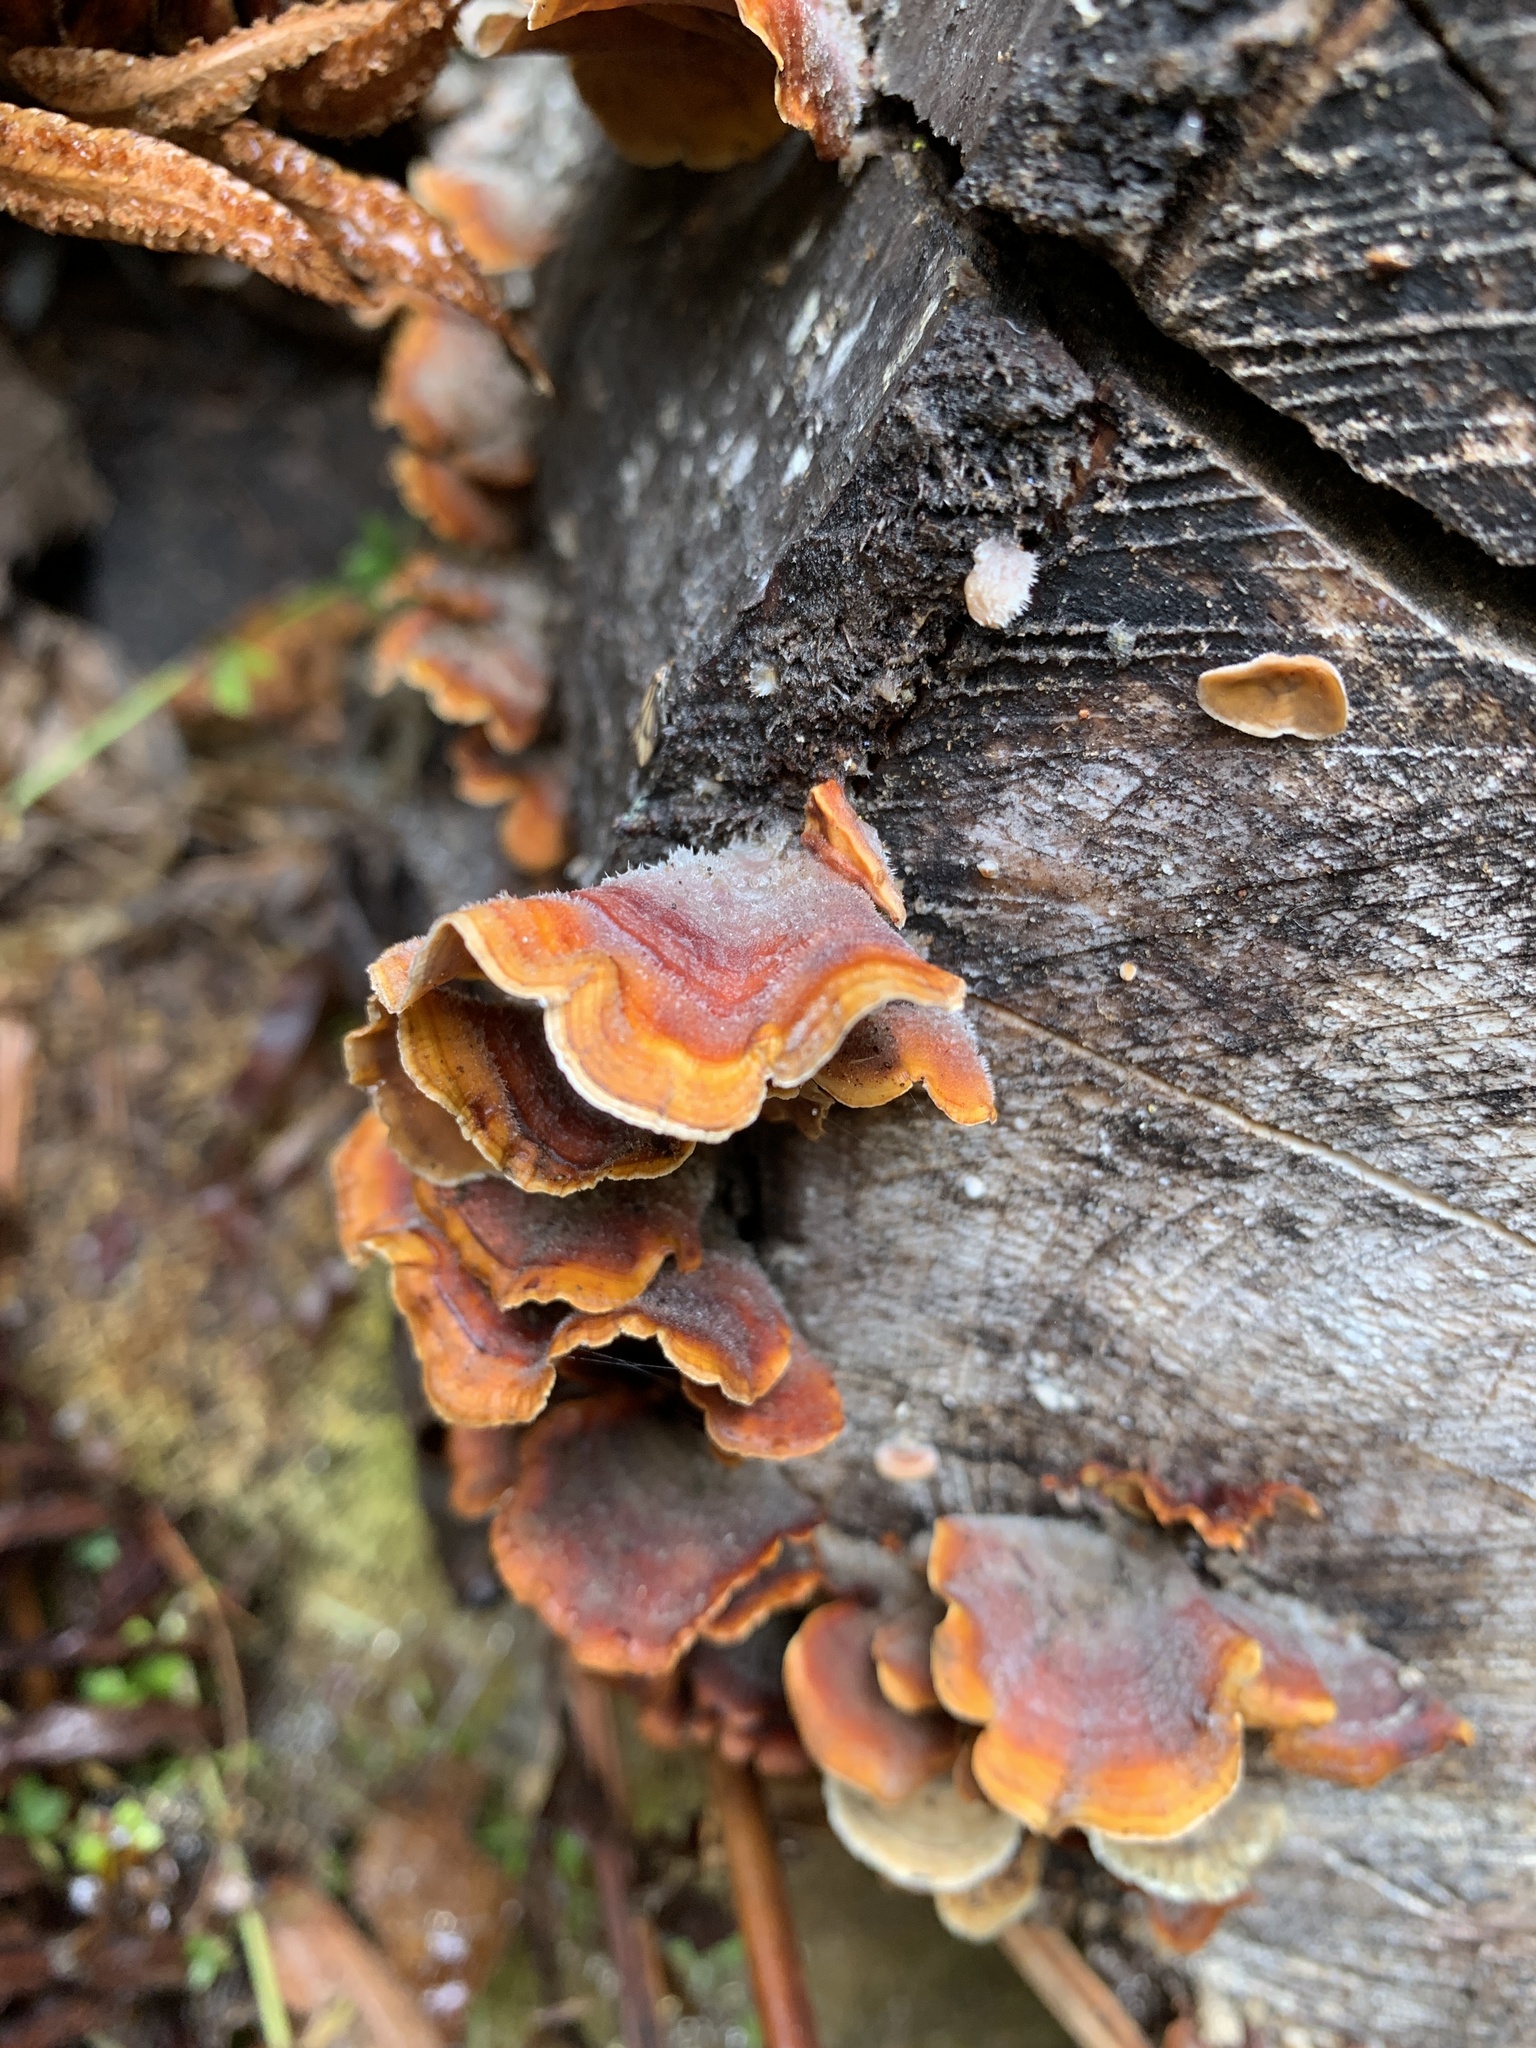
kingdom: Fungi
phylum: Basidiomycota
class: Agaricomycetes
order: Russulales
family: Stereaceae
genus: Stereum
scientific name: Stereum hirsutum
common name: Hairy curtain crust
